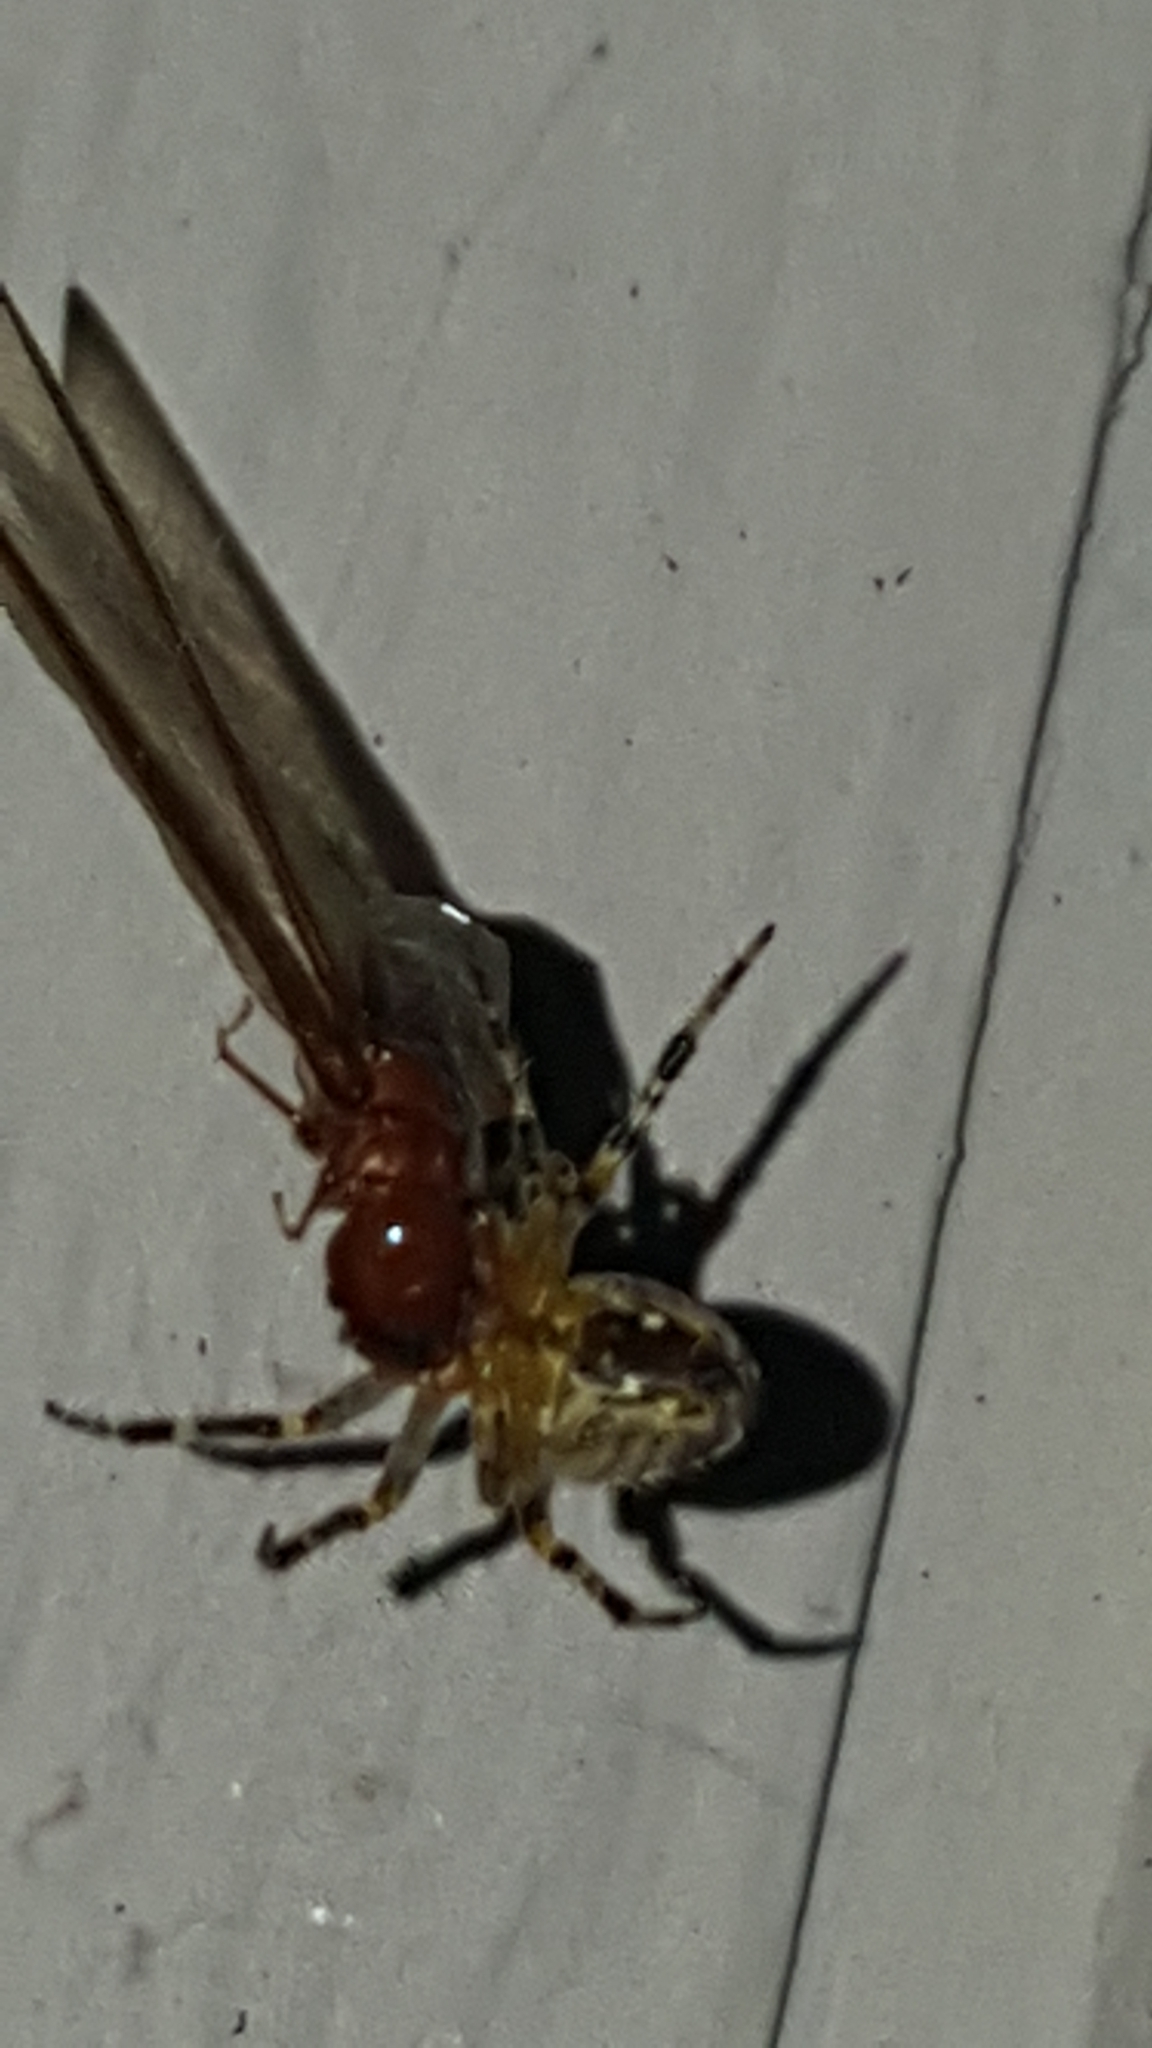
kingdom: Animalia
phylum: Arthropoda
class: Insecta
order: Blattodea
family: Archotermopsidae
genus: Zootermopsis
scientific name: Zootermopsis
